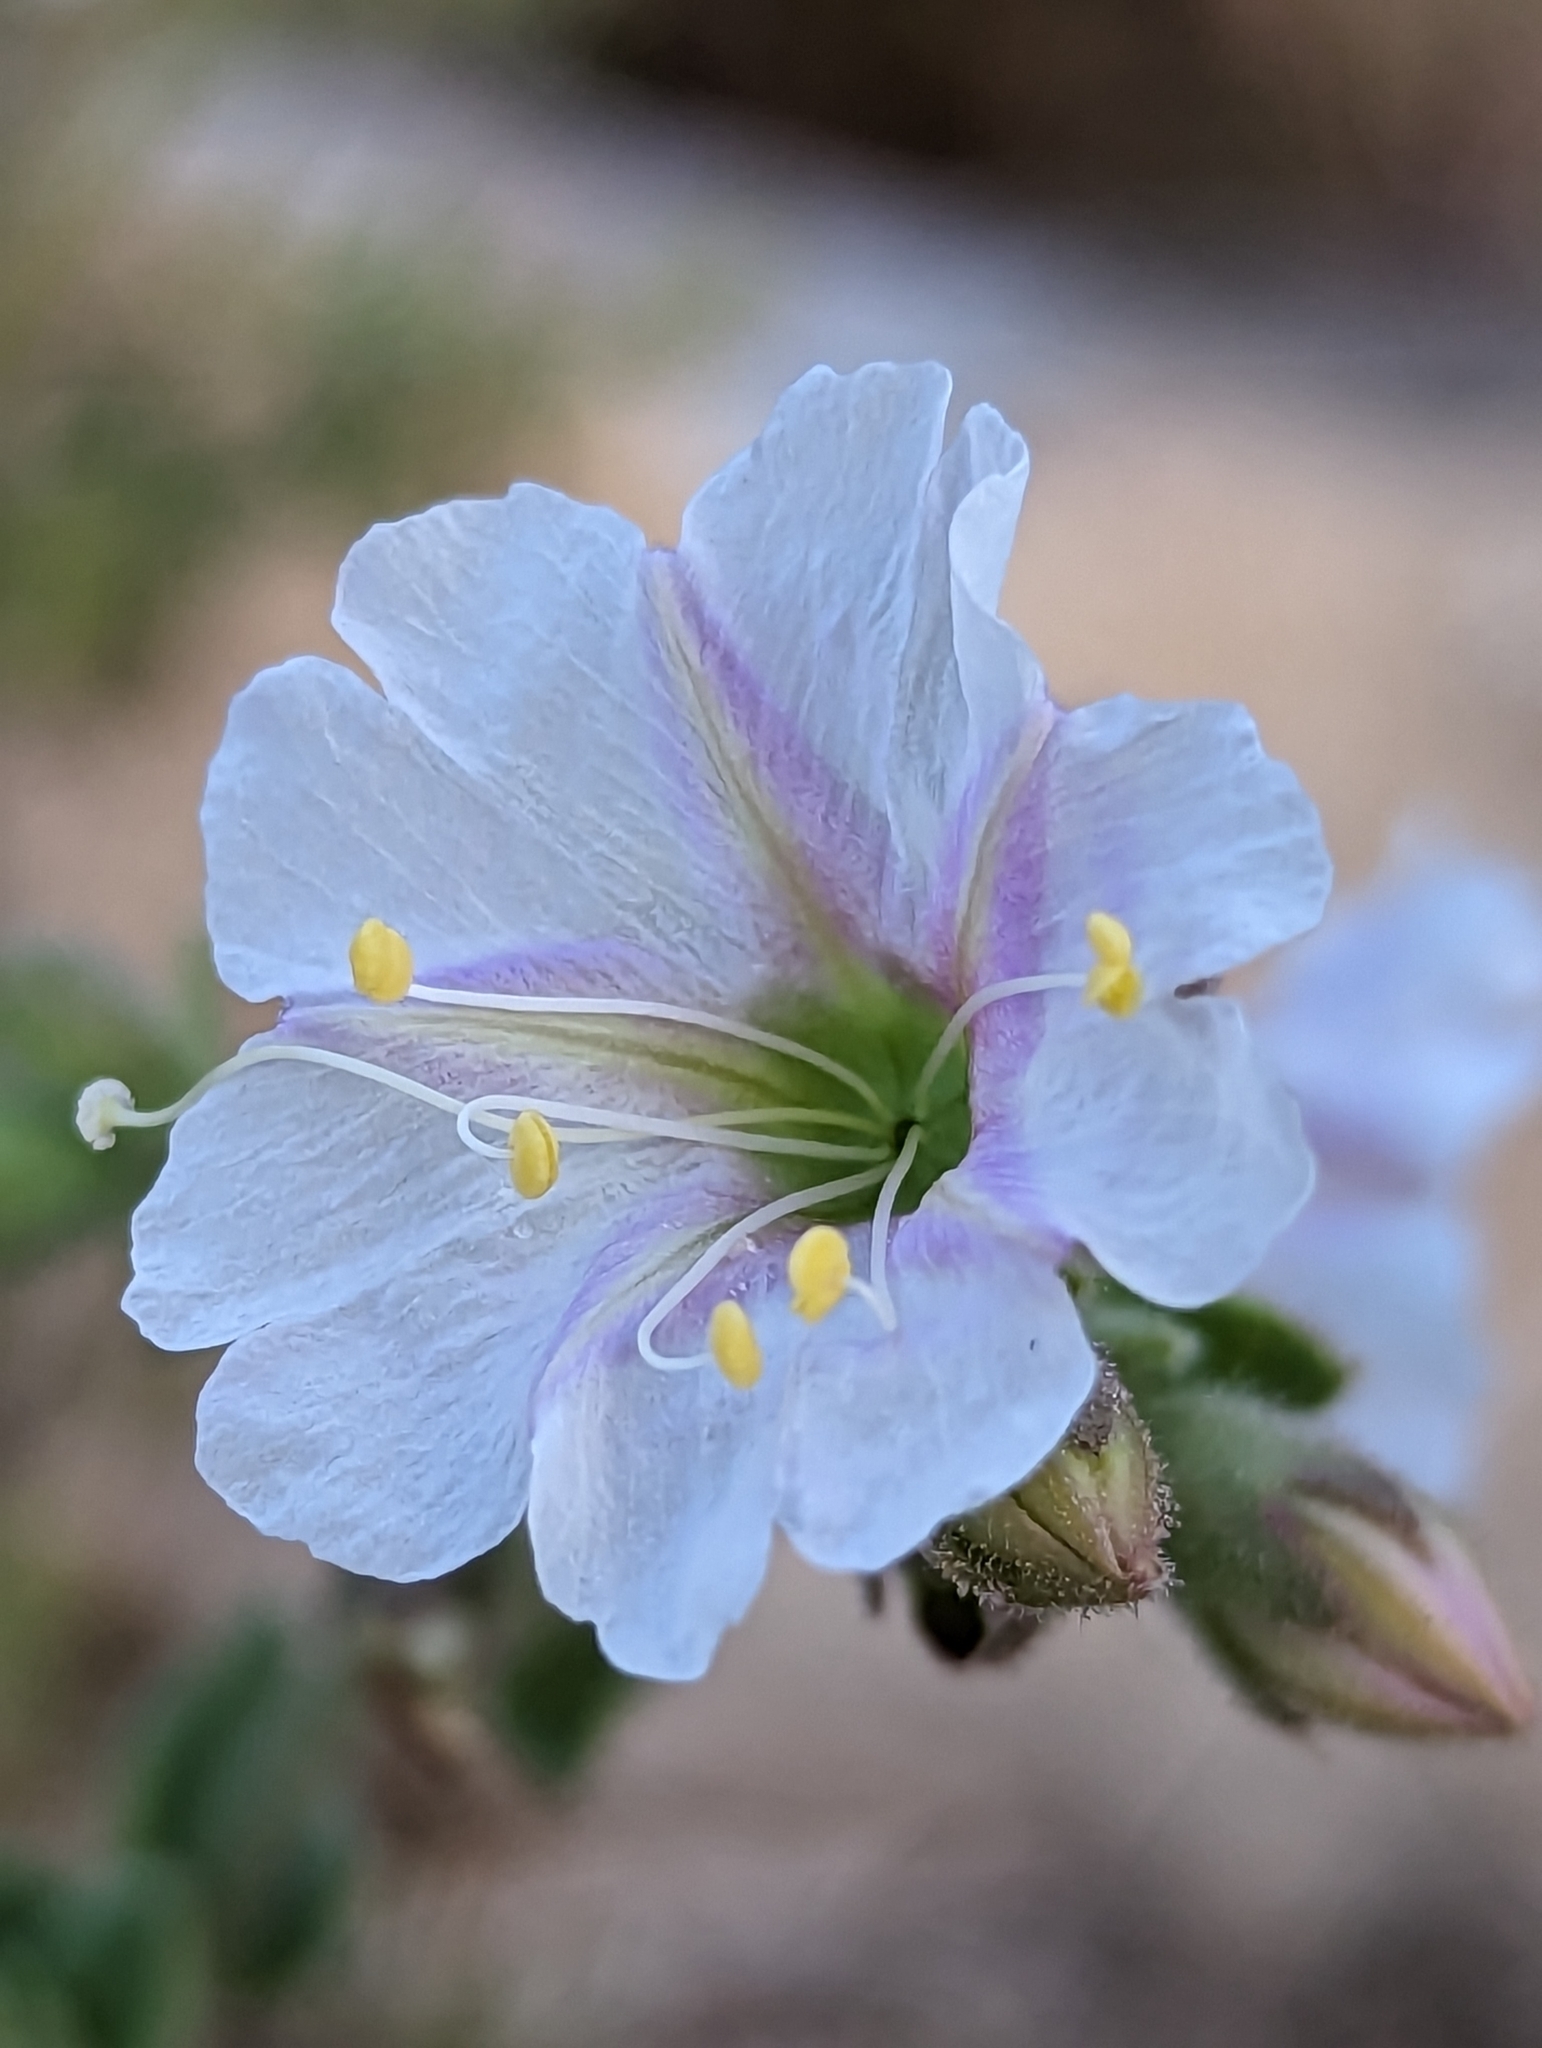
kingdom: Plantae
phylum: Tracheophyta
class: Magnoliopsida
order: Caryophyllales
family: Nyctaginaceae
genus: Mirabilis
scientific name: Mirabilis laevis
